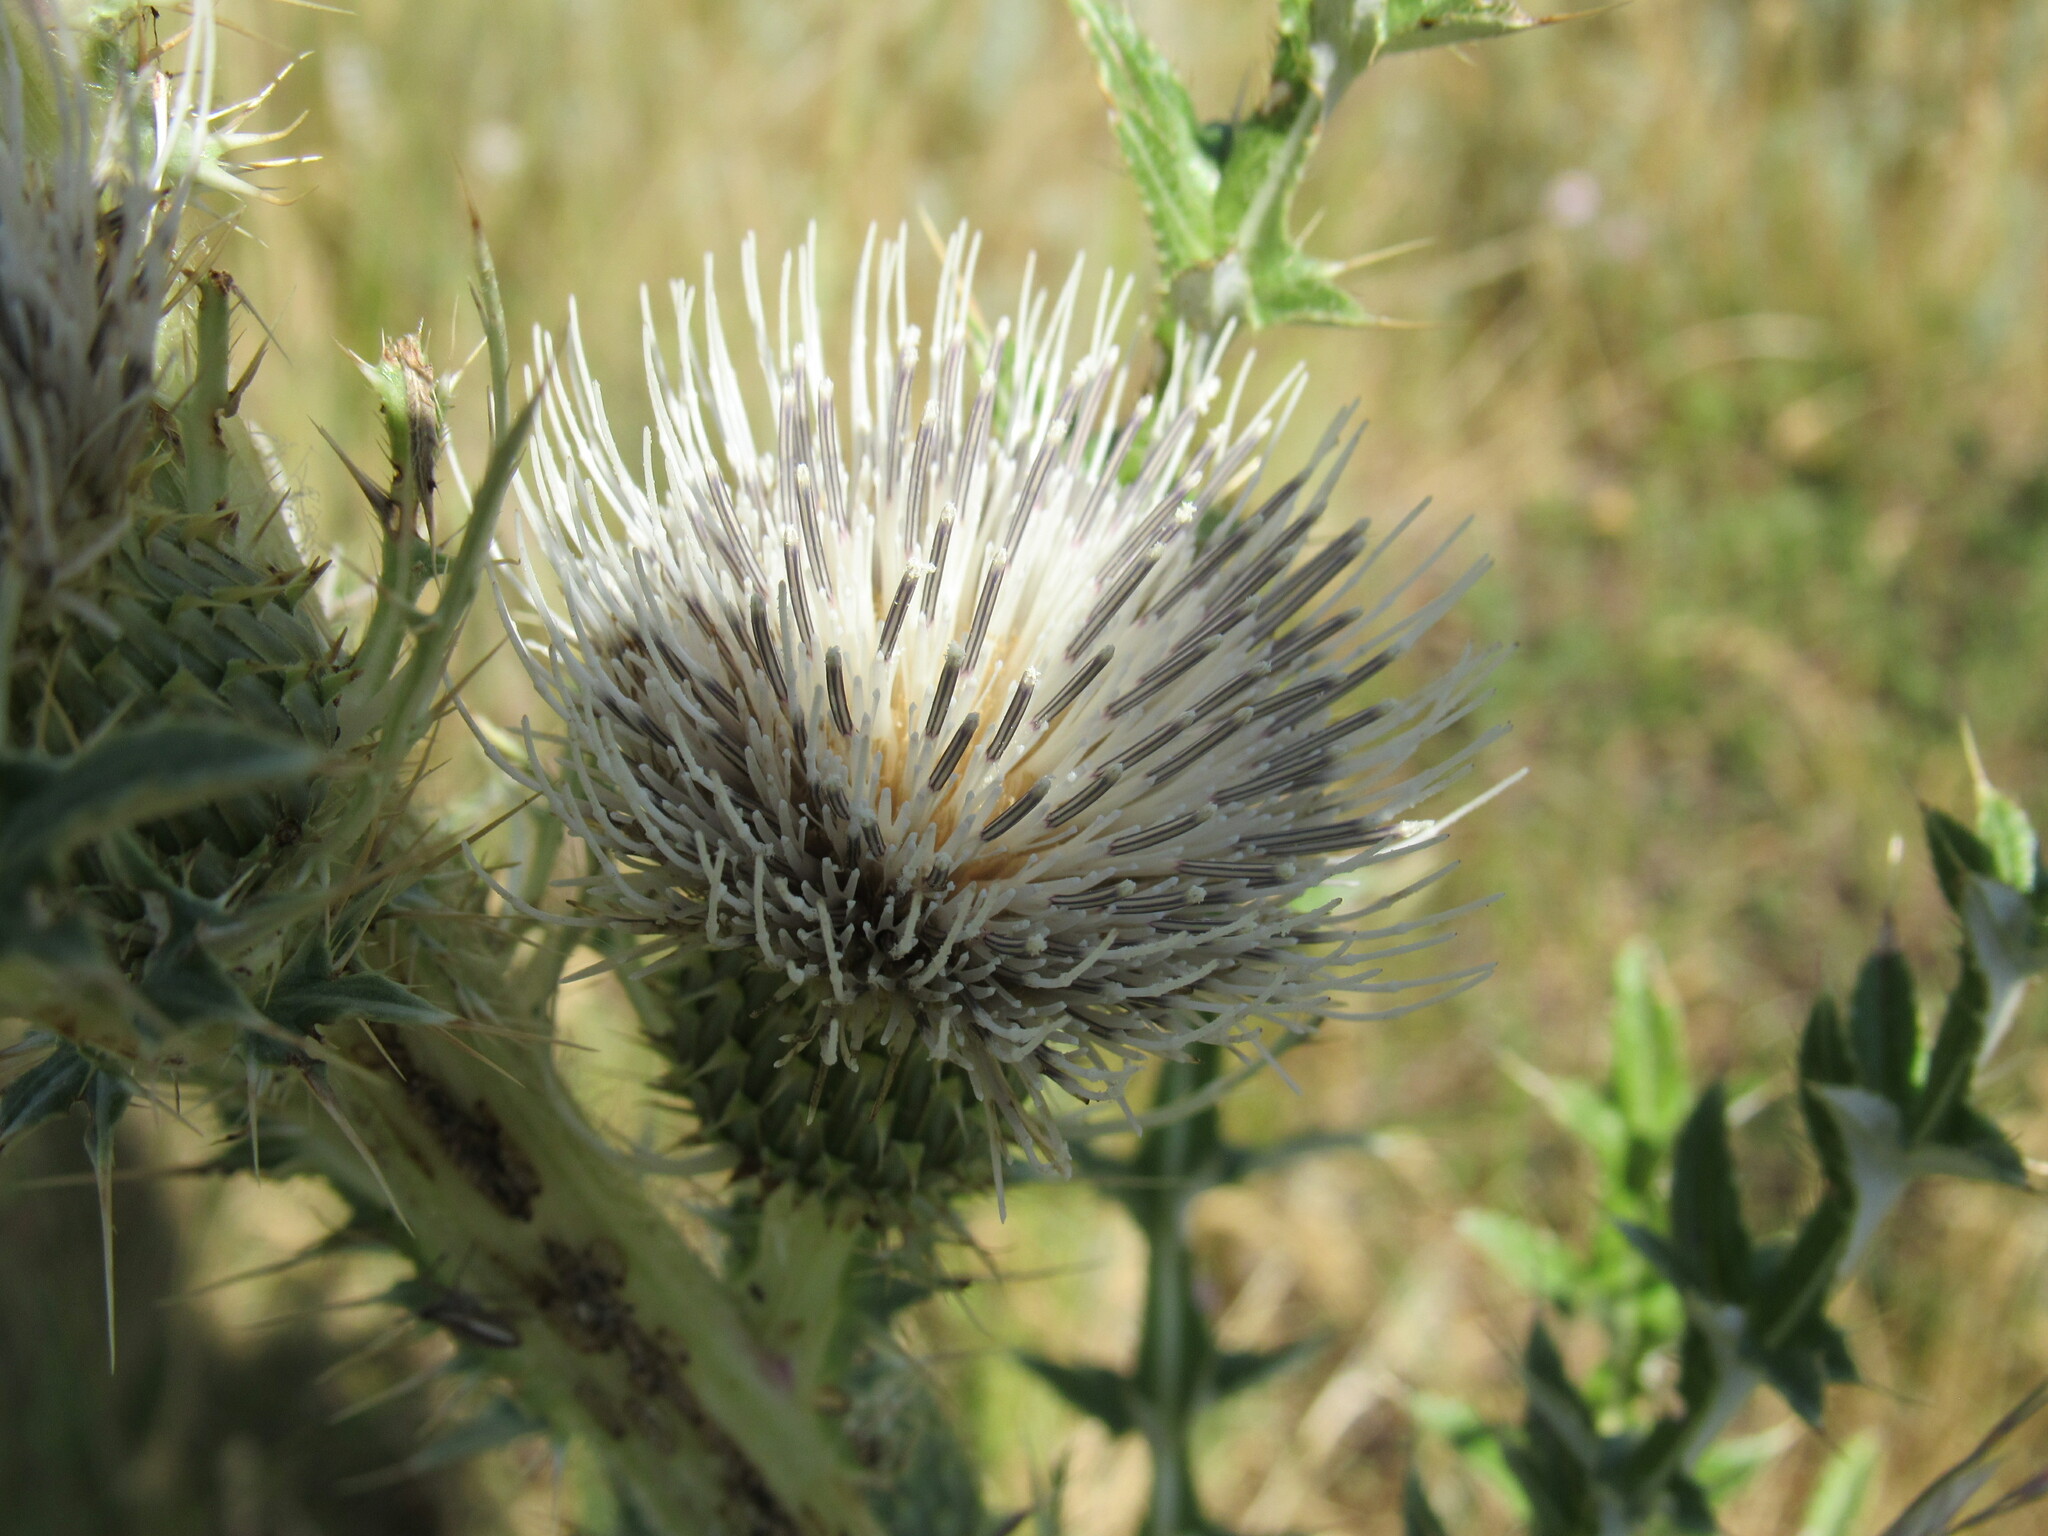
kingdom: Plantae
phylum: Tracheophyta
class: Magnoliopsida
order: Asterales
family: Asteraceae
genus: Cirsium
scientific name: Cirsium coloradense
